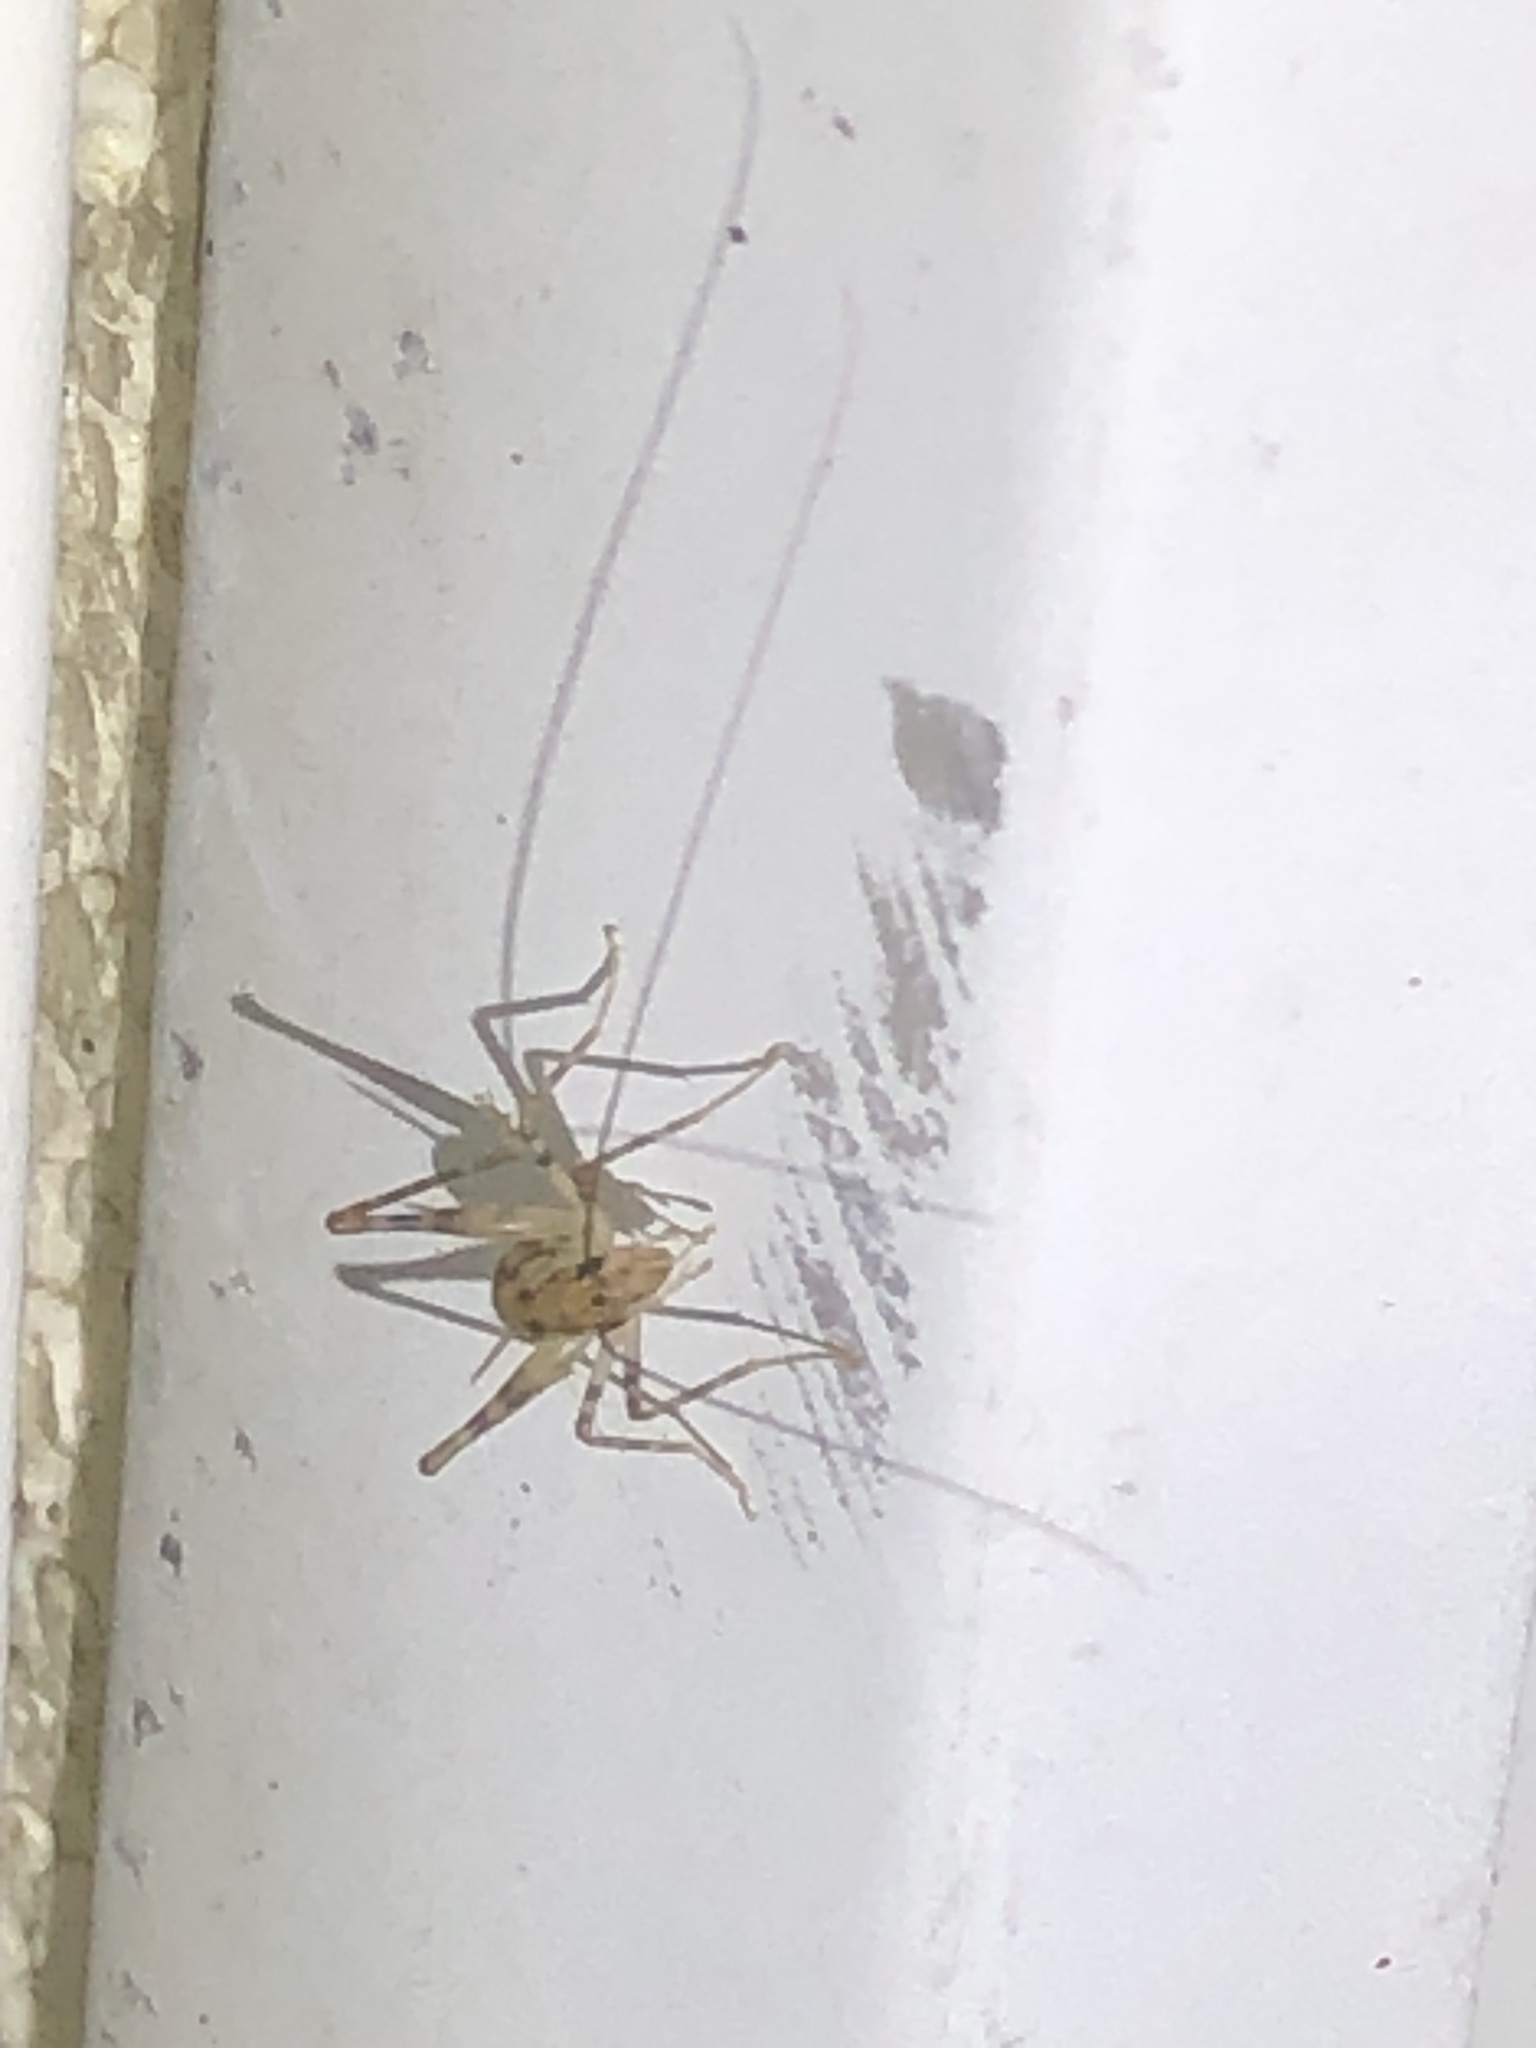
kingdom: Animalia
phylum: Arthropoda
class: Insecta
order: Orthoptera
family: Rhaphidophoridae
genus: Tachycines
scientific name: Tachycines asynamorus
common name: Greenhouse camel cricket
